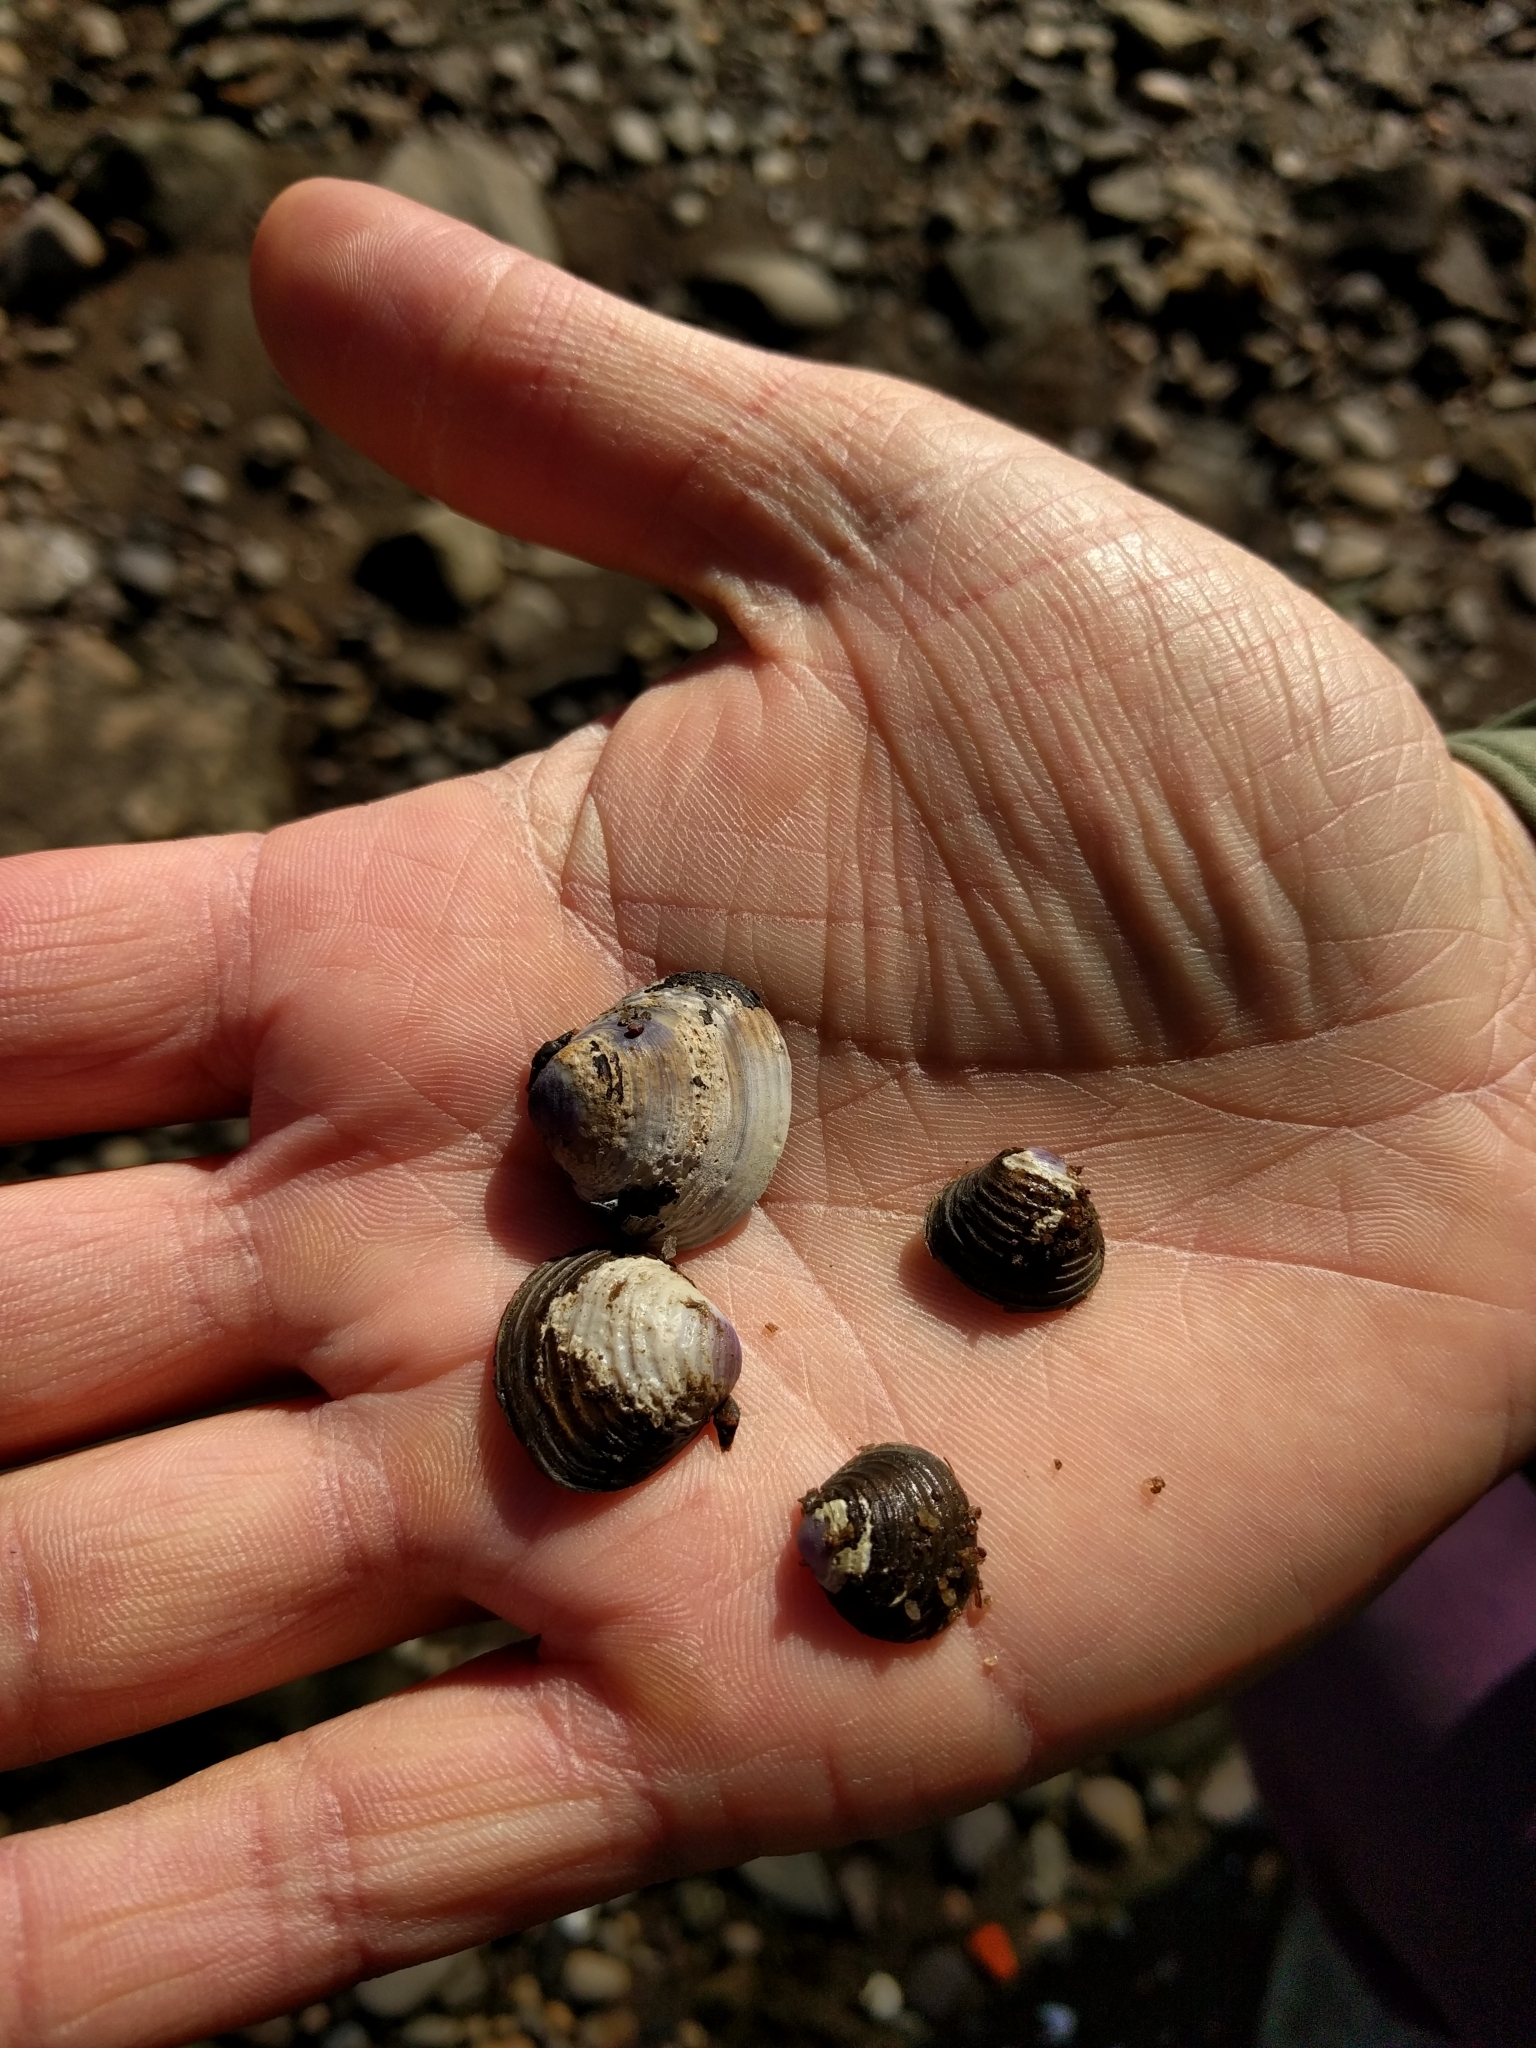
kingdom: Animalia
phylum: Mollusca
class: Bivalvia
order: Venerida
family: Cyrenidae
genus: Corbicula
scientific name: Corbicula fluminea
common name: Asian clam
